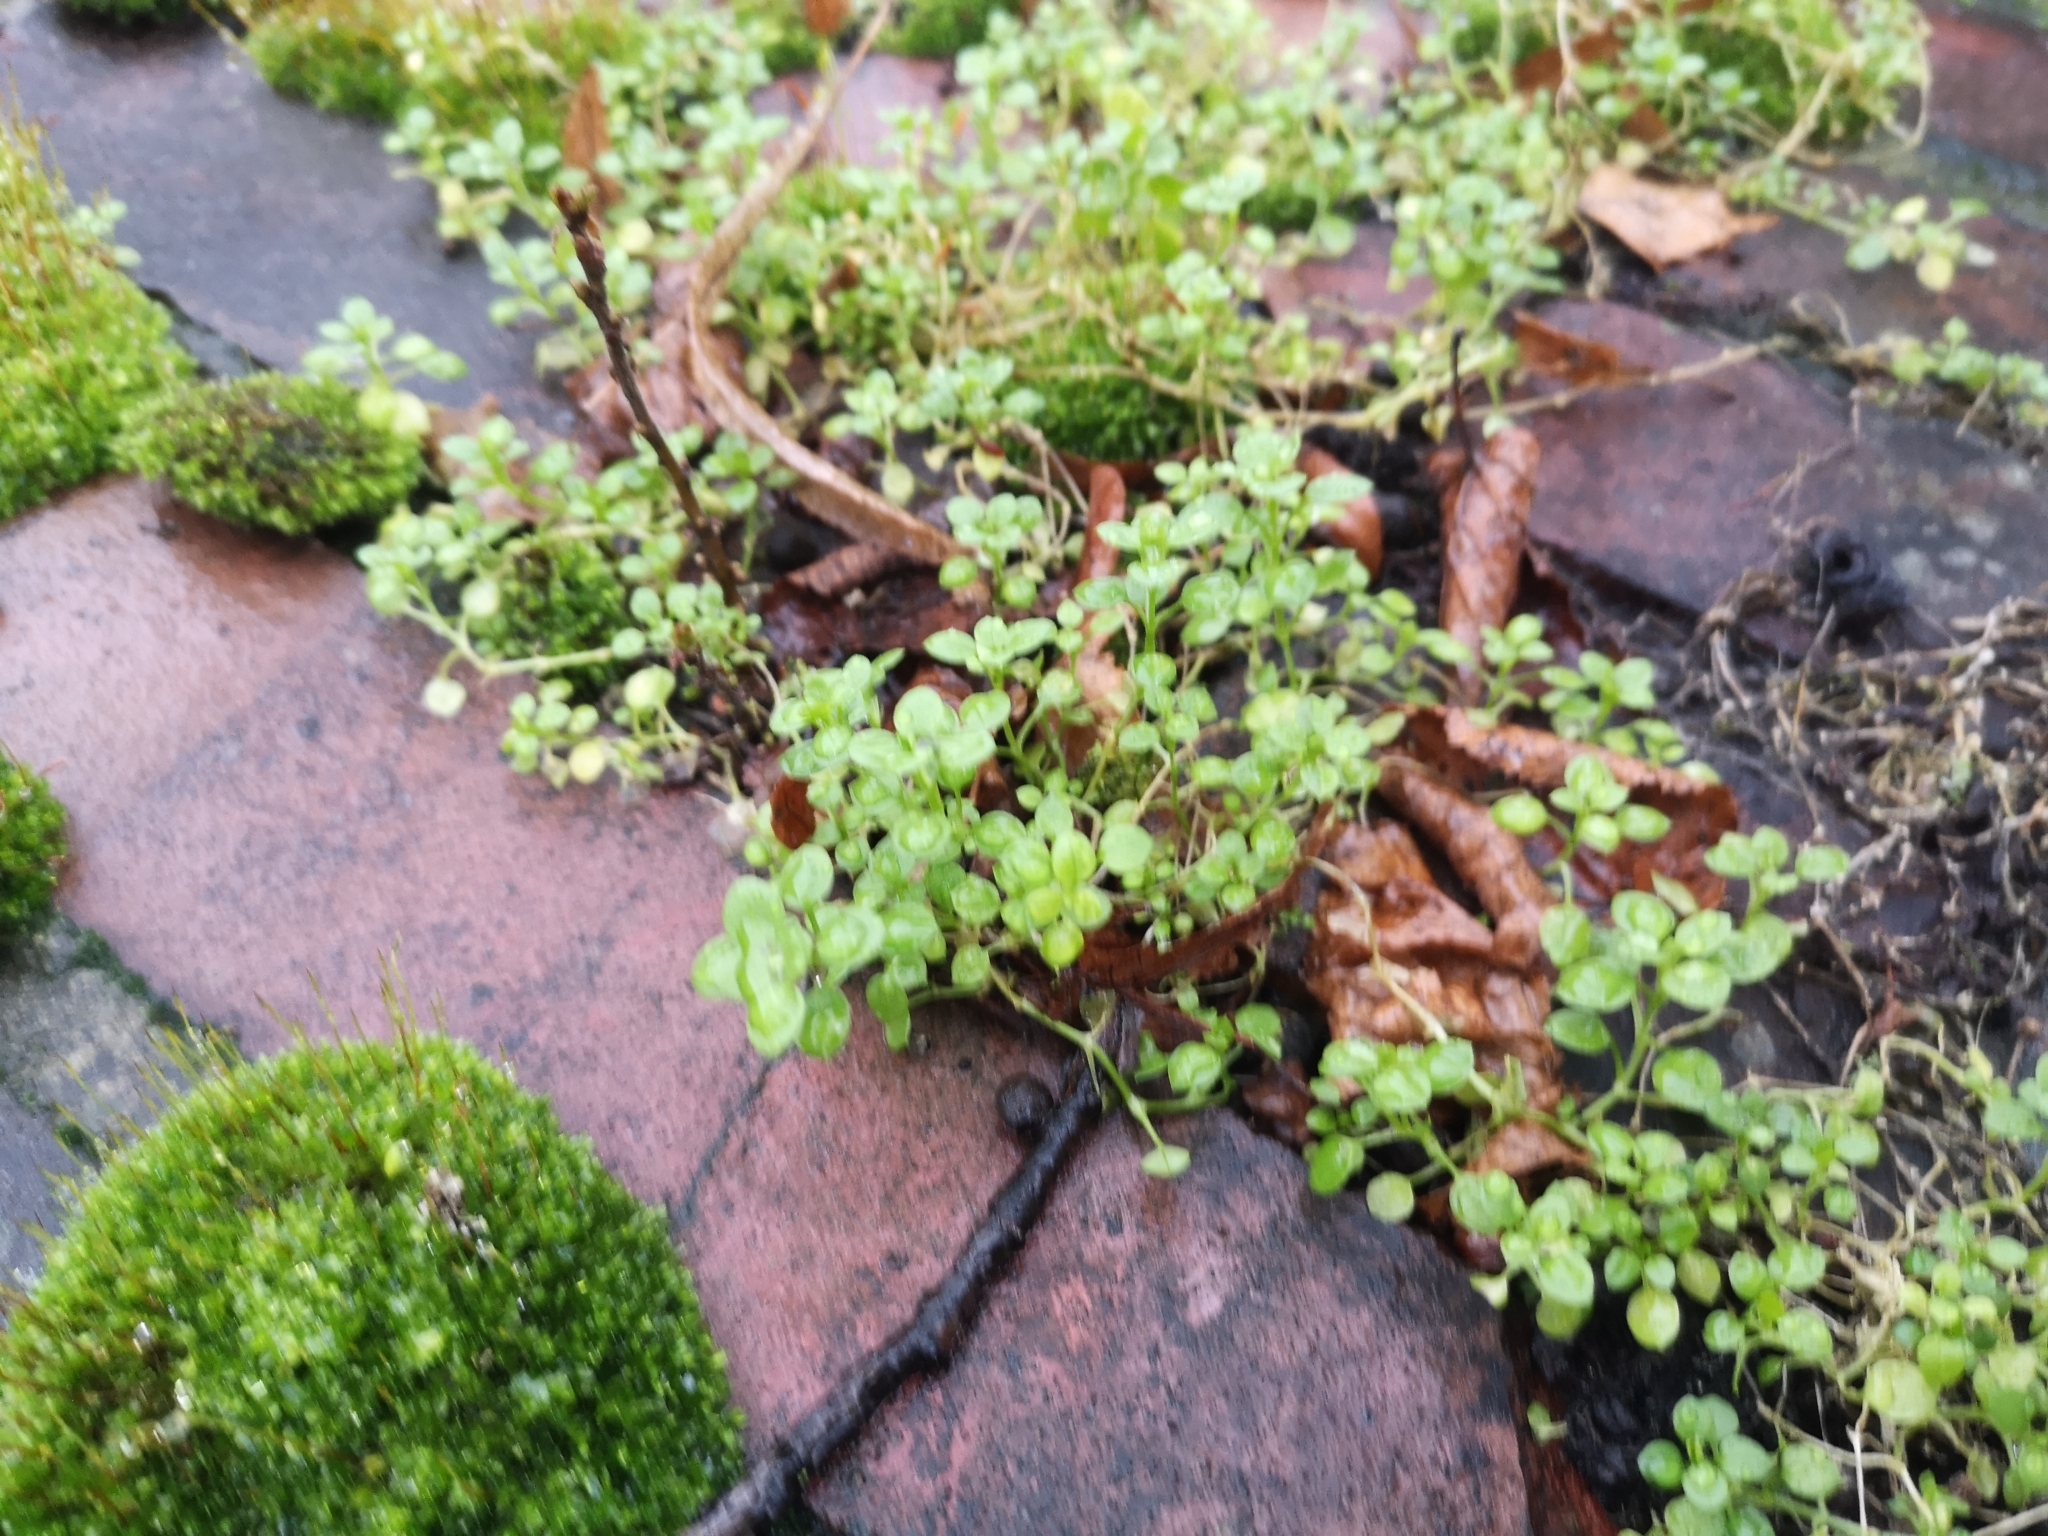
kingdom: Plantae
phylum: Tracheophyta
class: Magnoliopsida
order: Caryophyllales
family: Caryophyllaceae
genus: Stellaria
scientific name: Stellaria media
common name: Common chickweed
